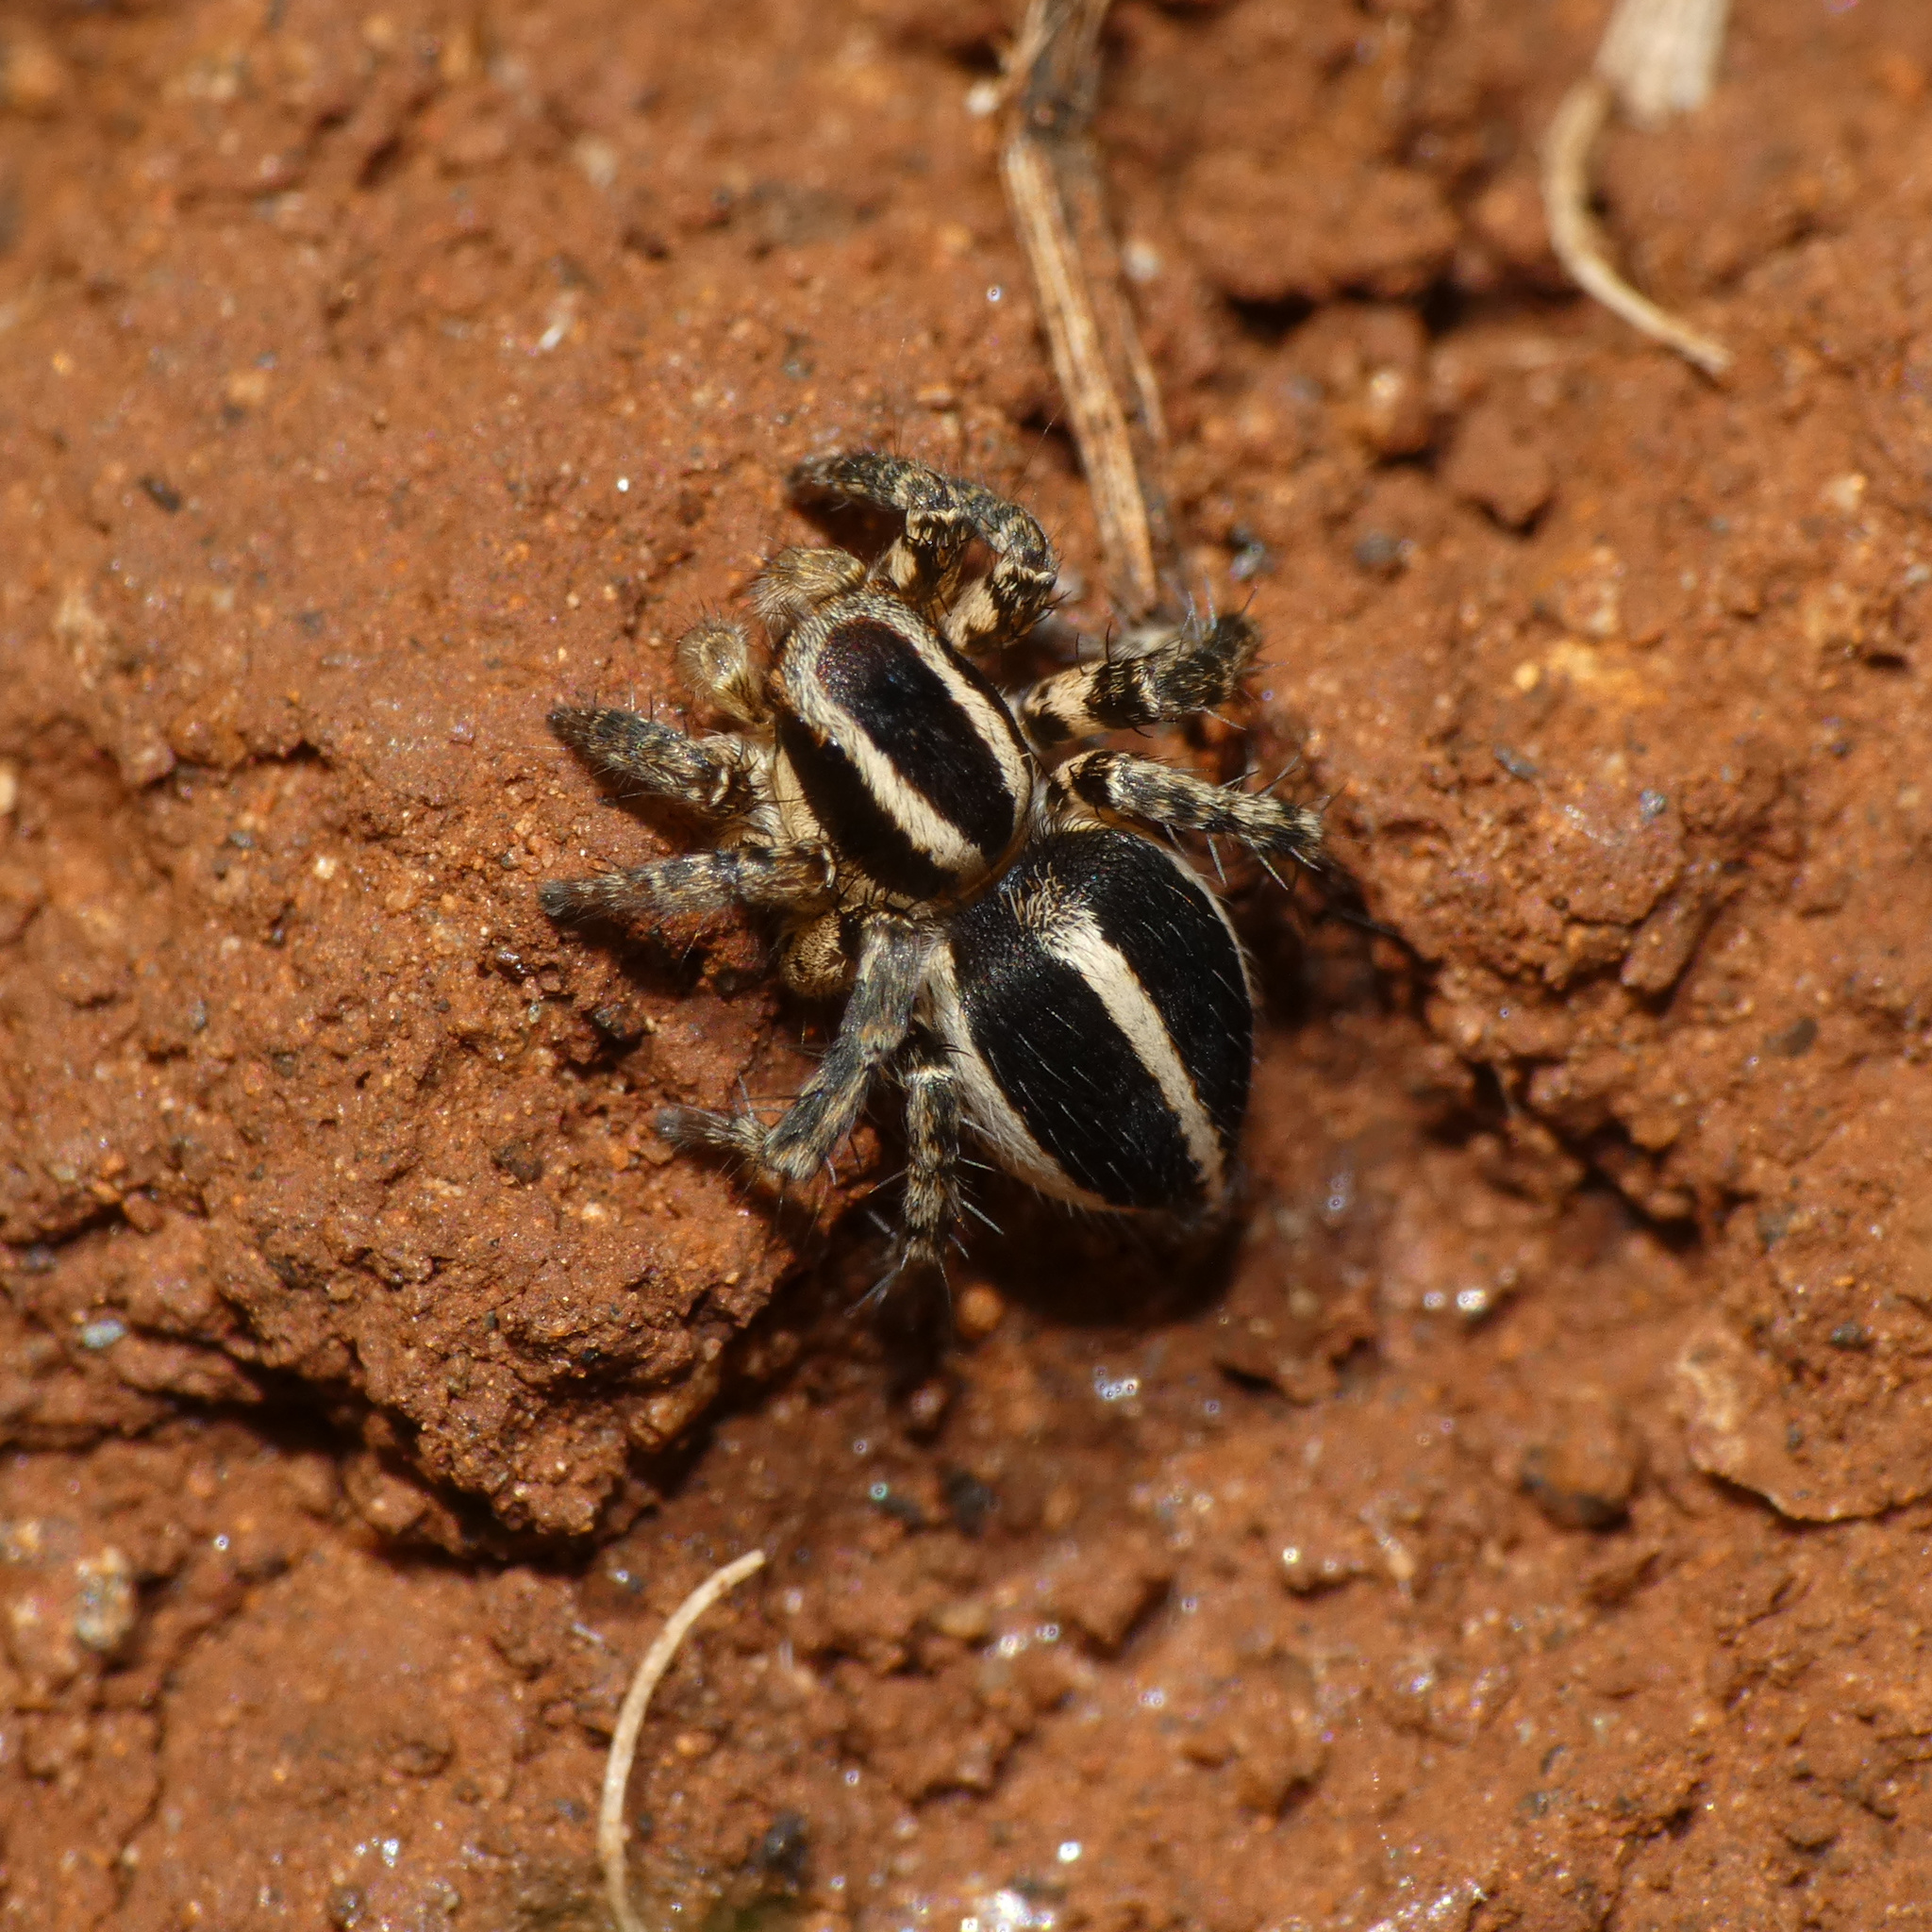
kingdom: Animalia
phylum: Arthropoda
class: Arachnida
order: Araneae
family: Salticidae
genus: Stenaelurillus
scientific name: Stenaelurillus termitophagus
